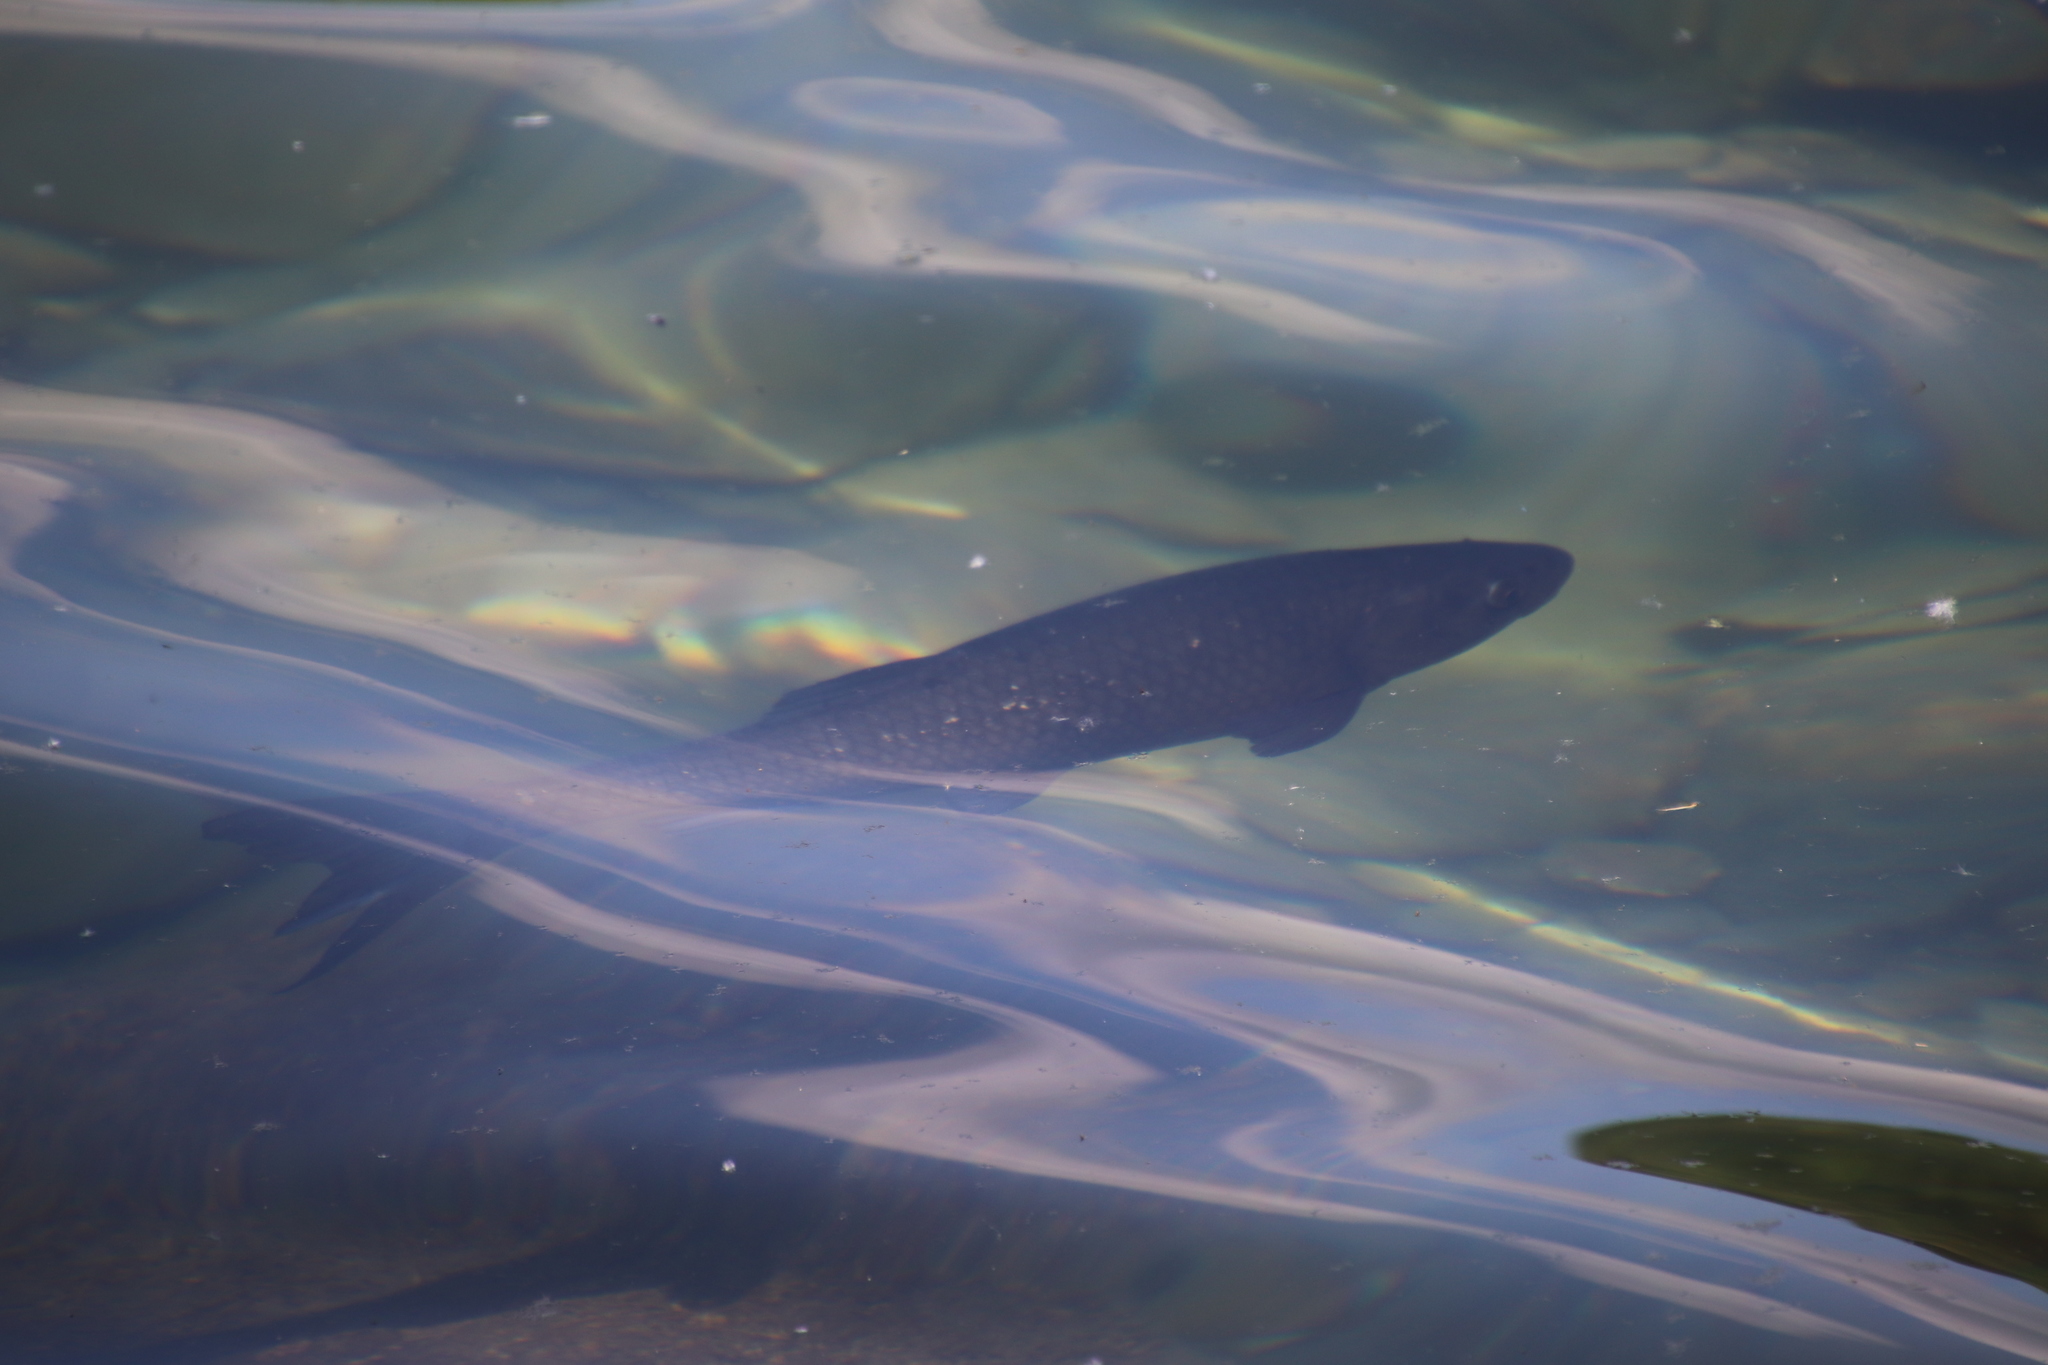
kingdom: Animalia
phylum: Chordata
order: Cypriniformes
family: Cyprinidae
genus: Squalius
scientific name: Squalius squalus
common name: Italian chub
